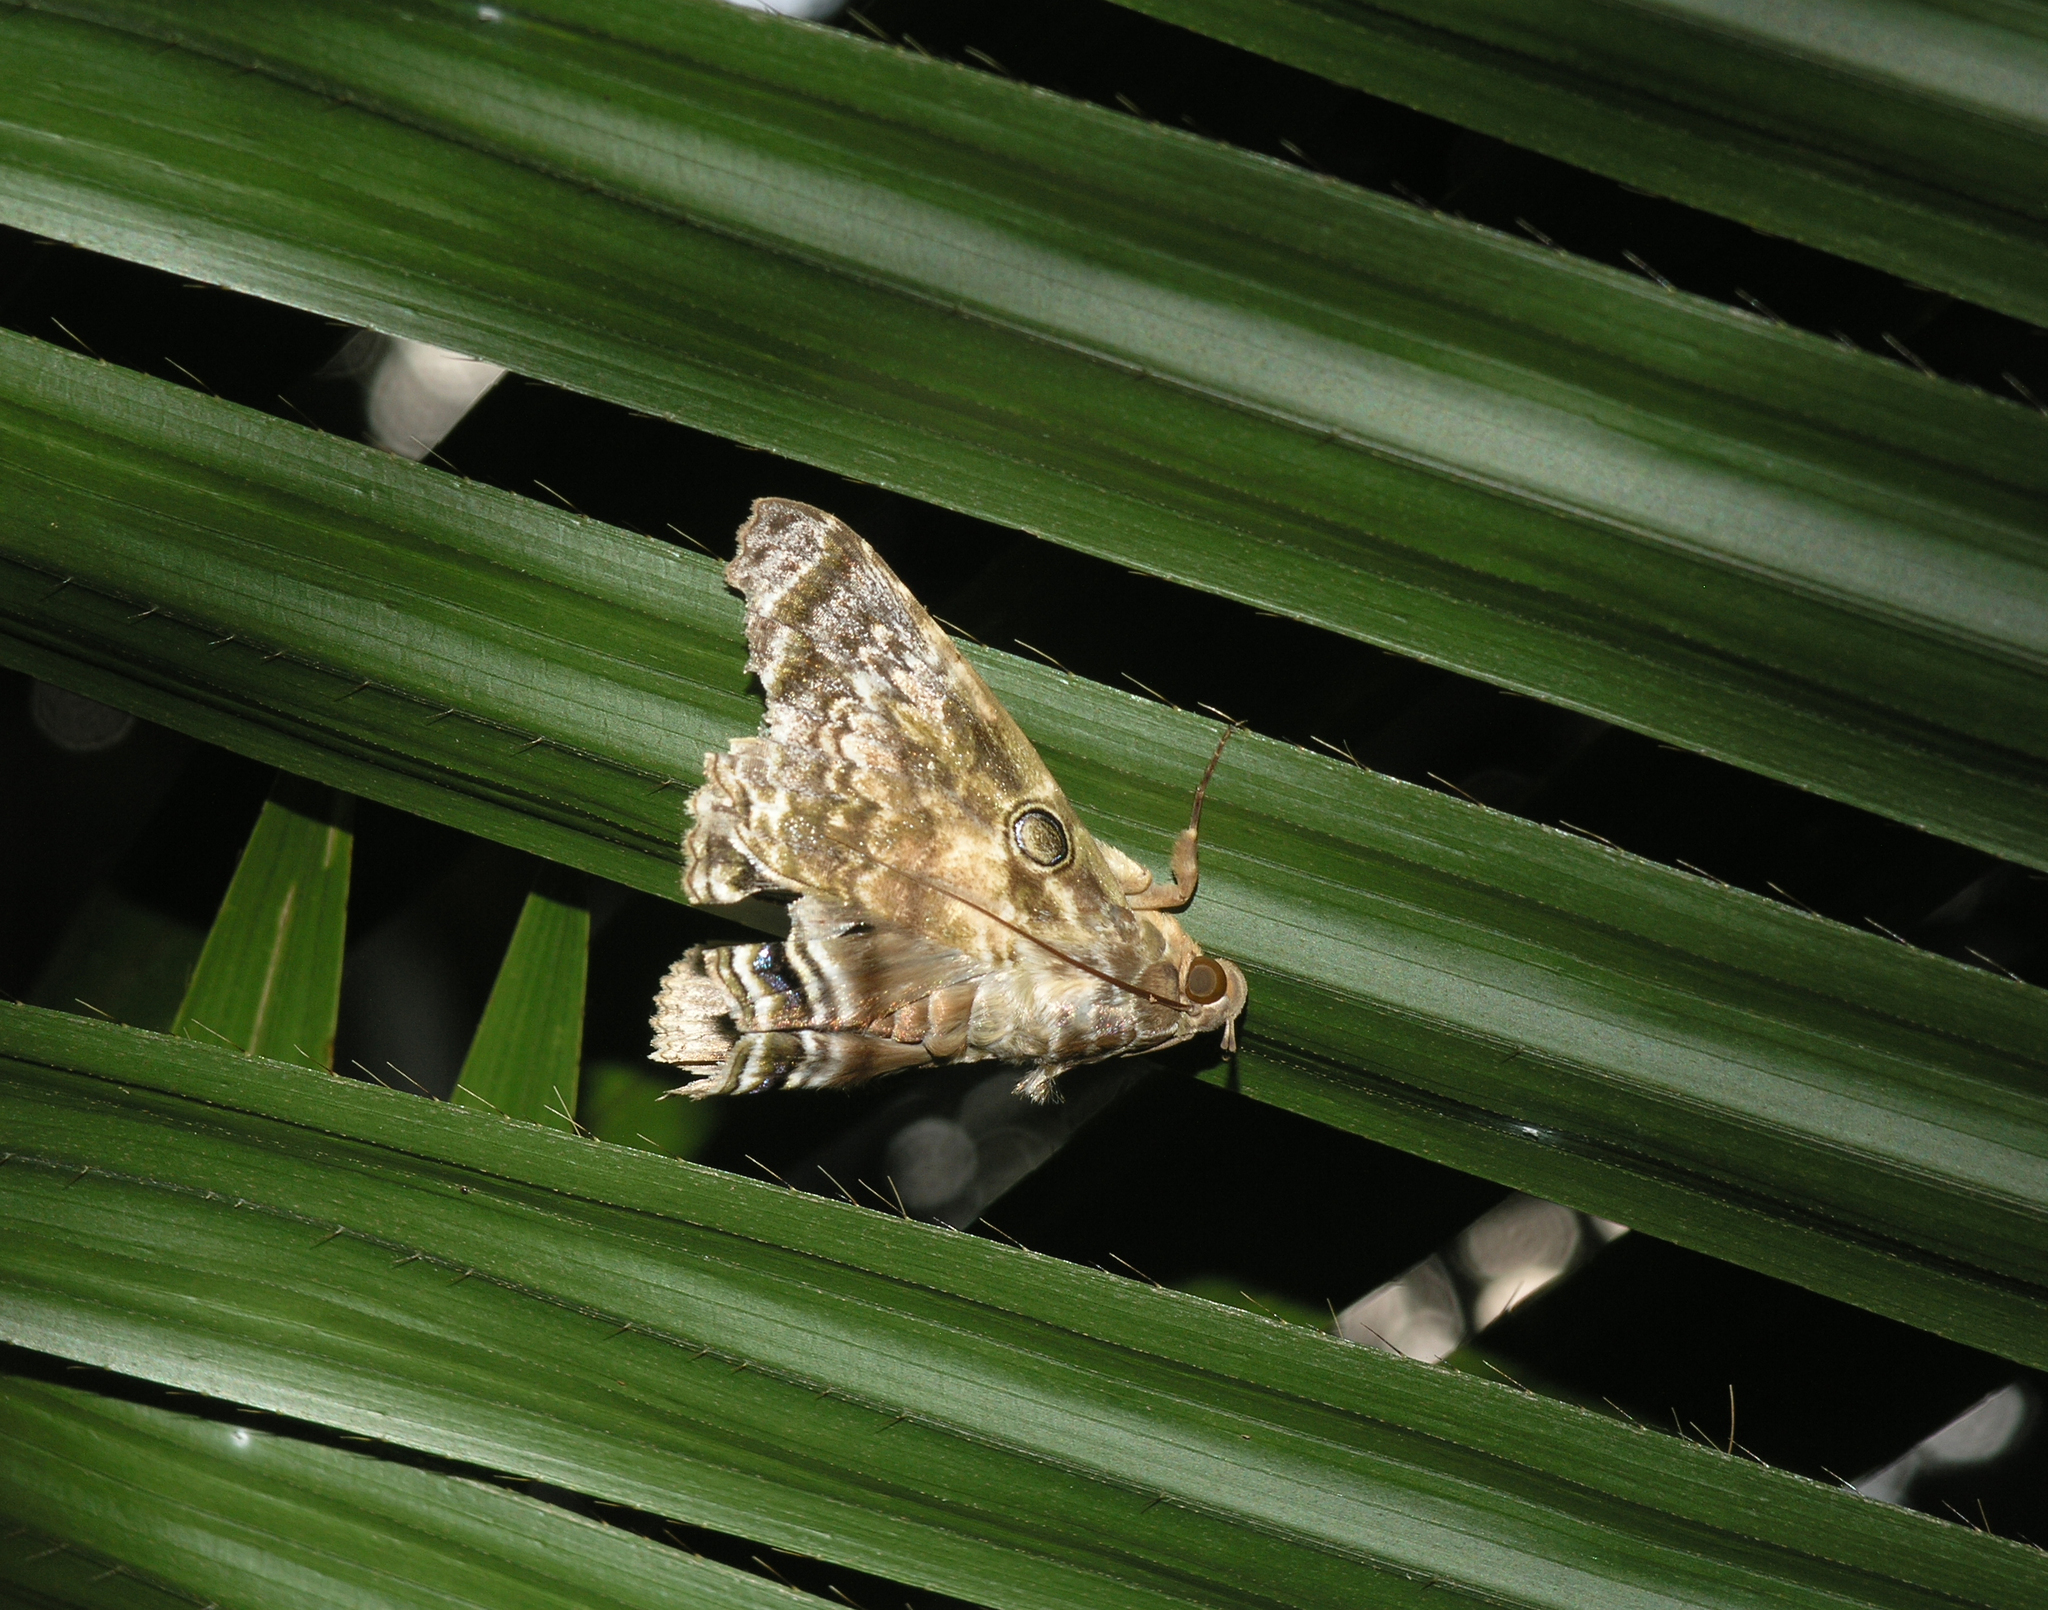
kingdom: Animalia
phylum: Arthropoda
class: Insecta
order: Lepidoptera
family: Erebidae
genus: Cyclodes
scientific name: Cyclodes omma
